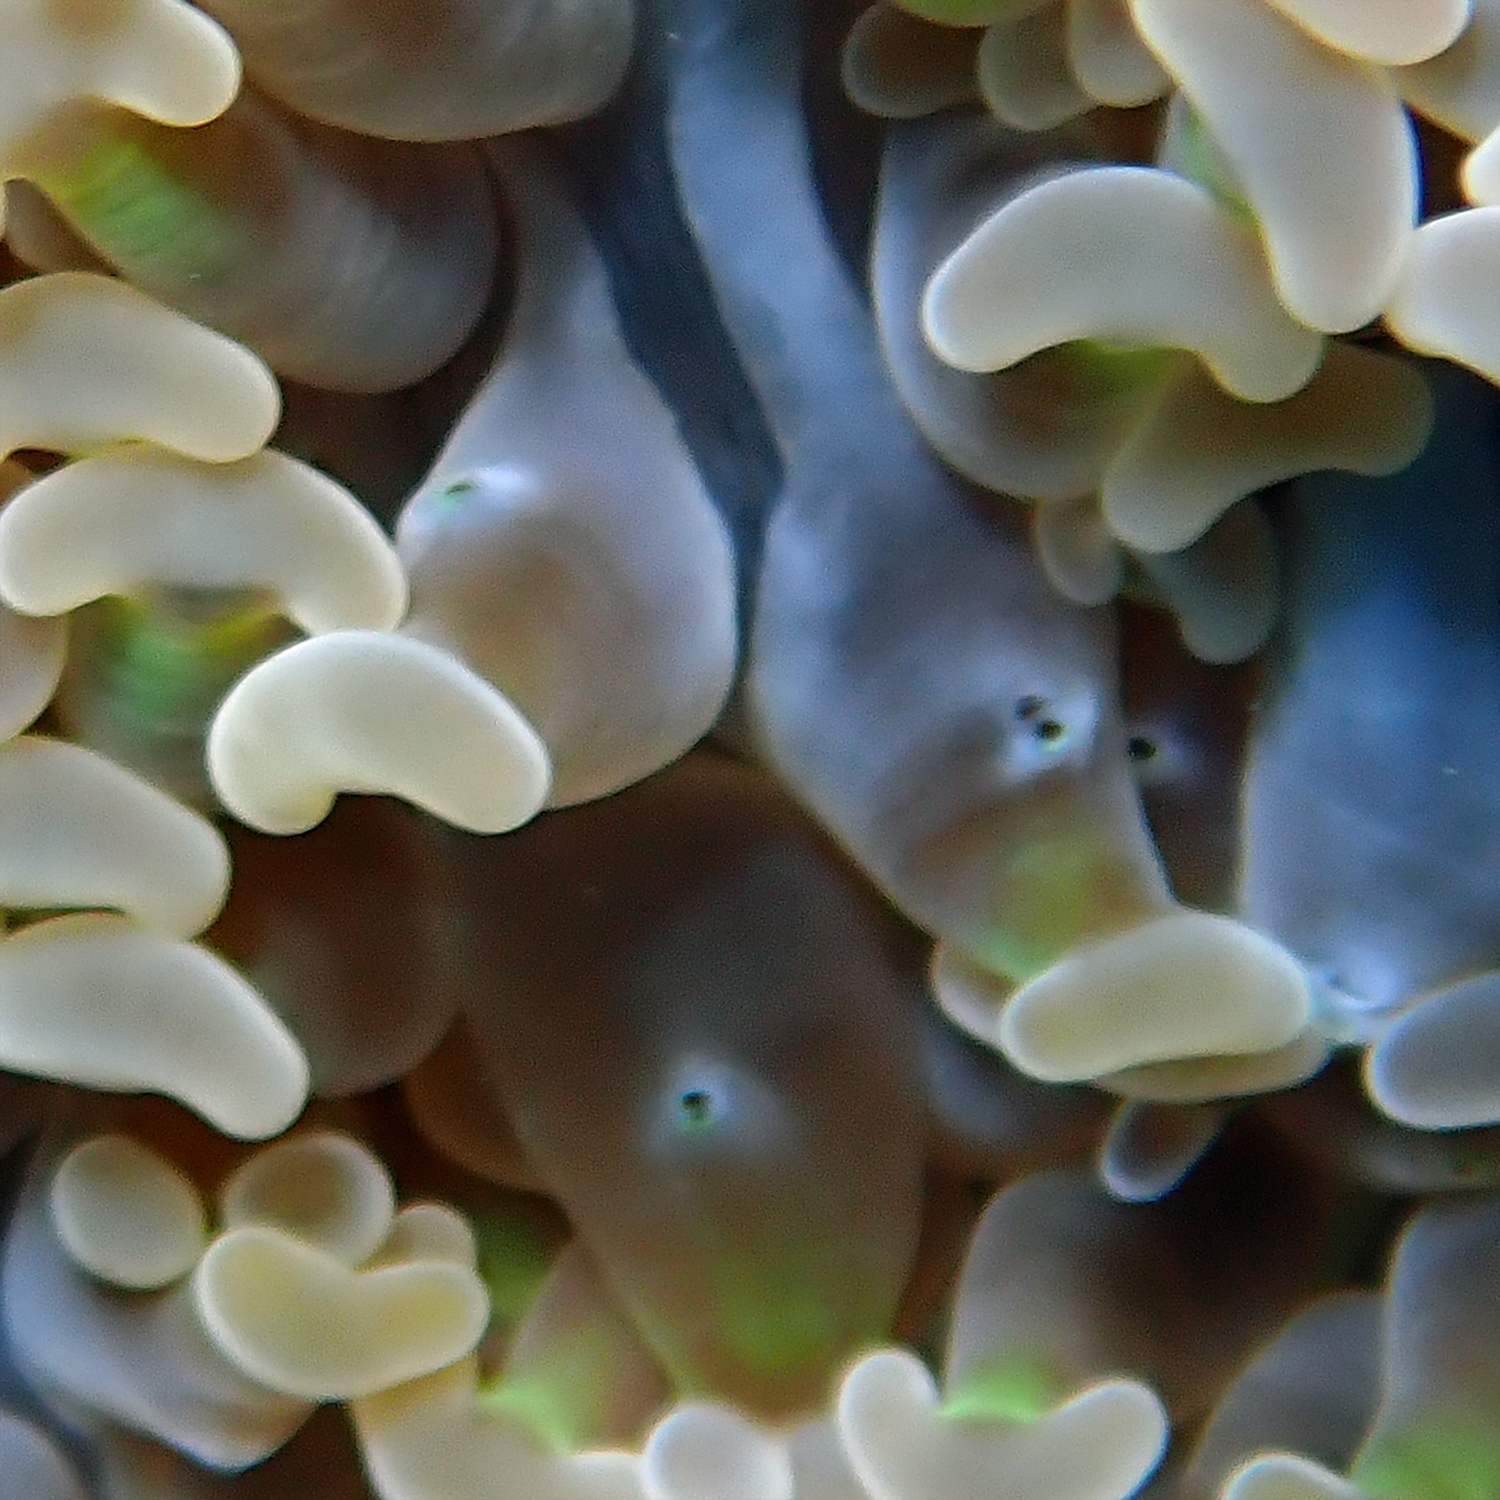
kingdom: Animalia
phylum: Cnidaria
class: Anthozoa
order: Scleractinia
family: Euphylliidae
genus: Fimbriaphyllia
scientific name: Fimbriaphyllia ancora
